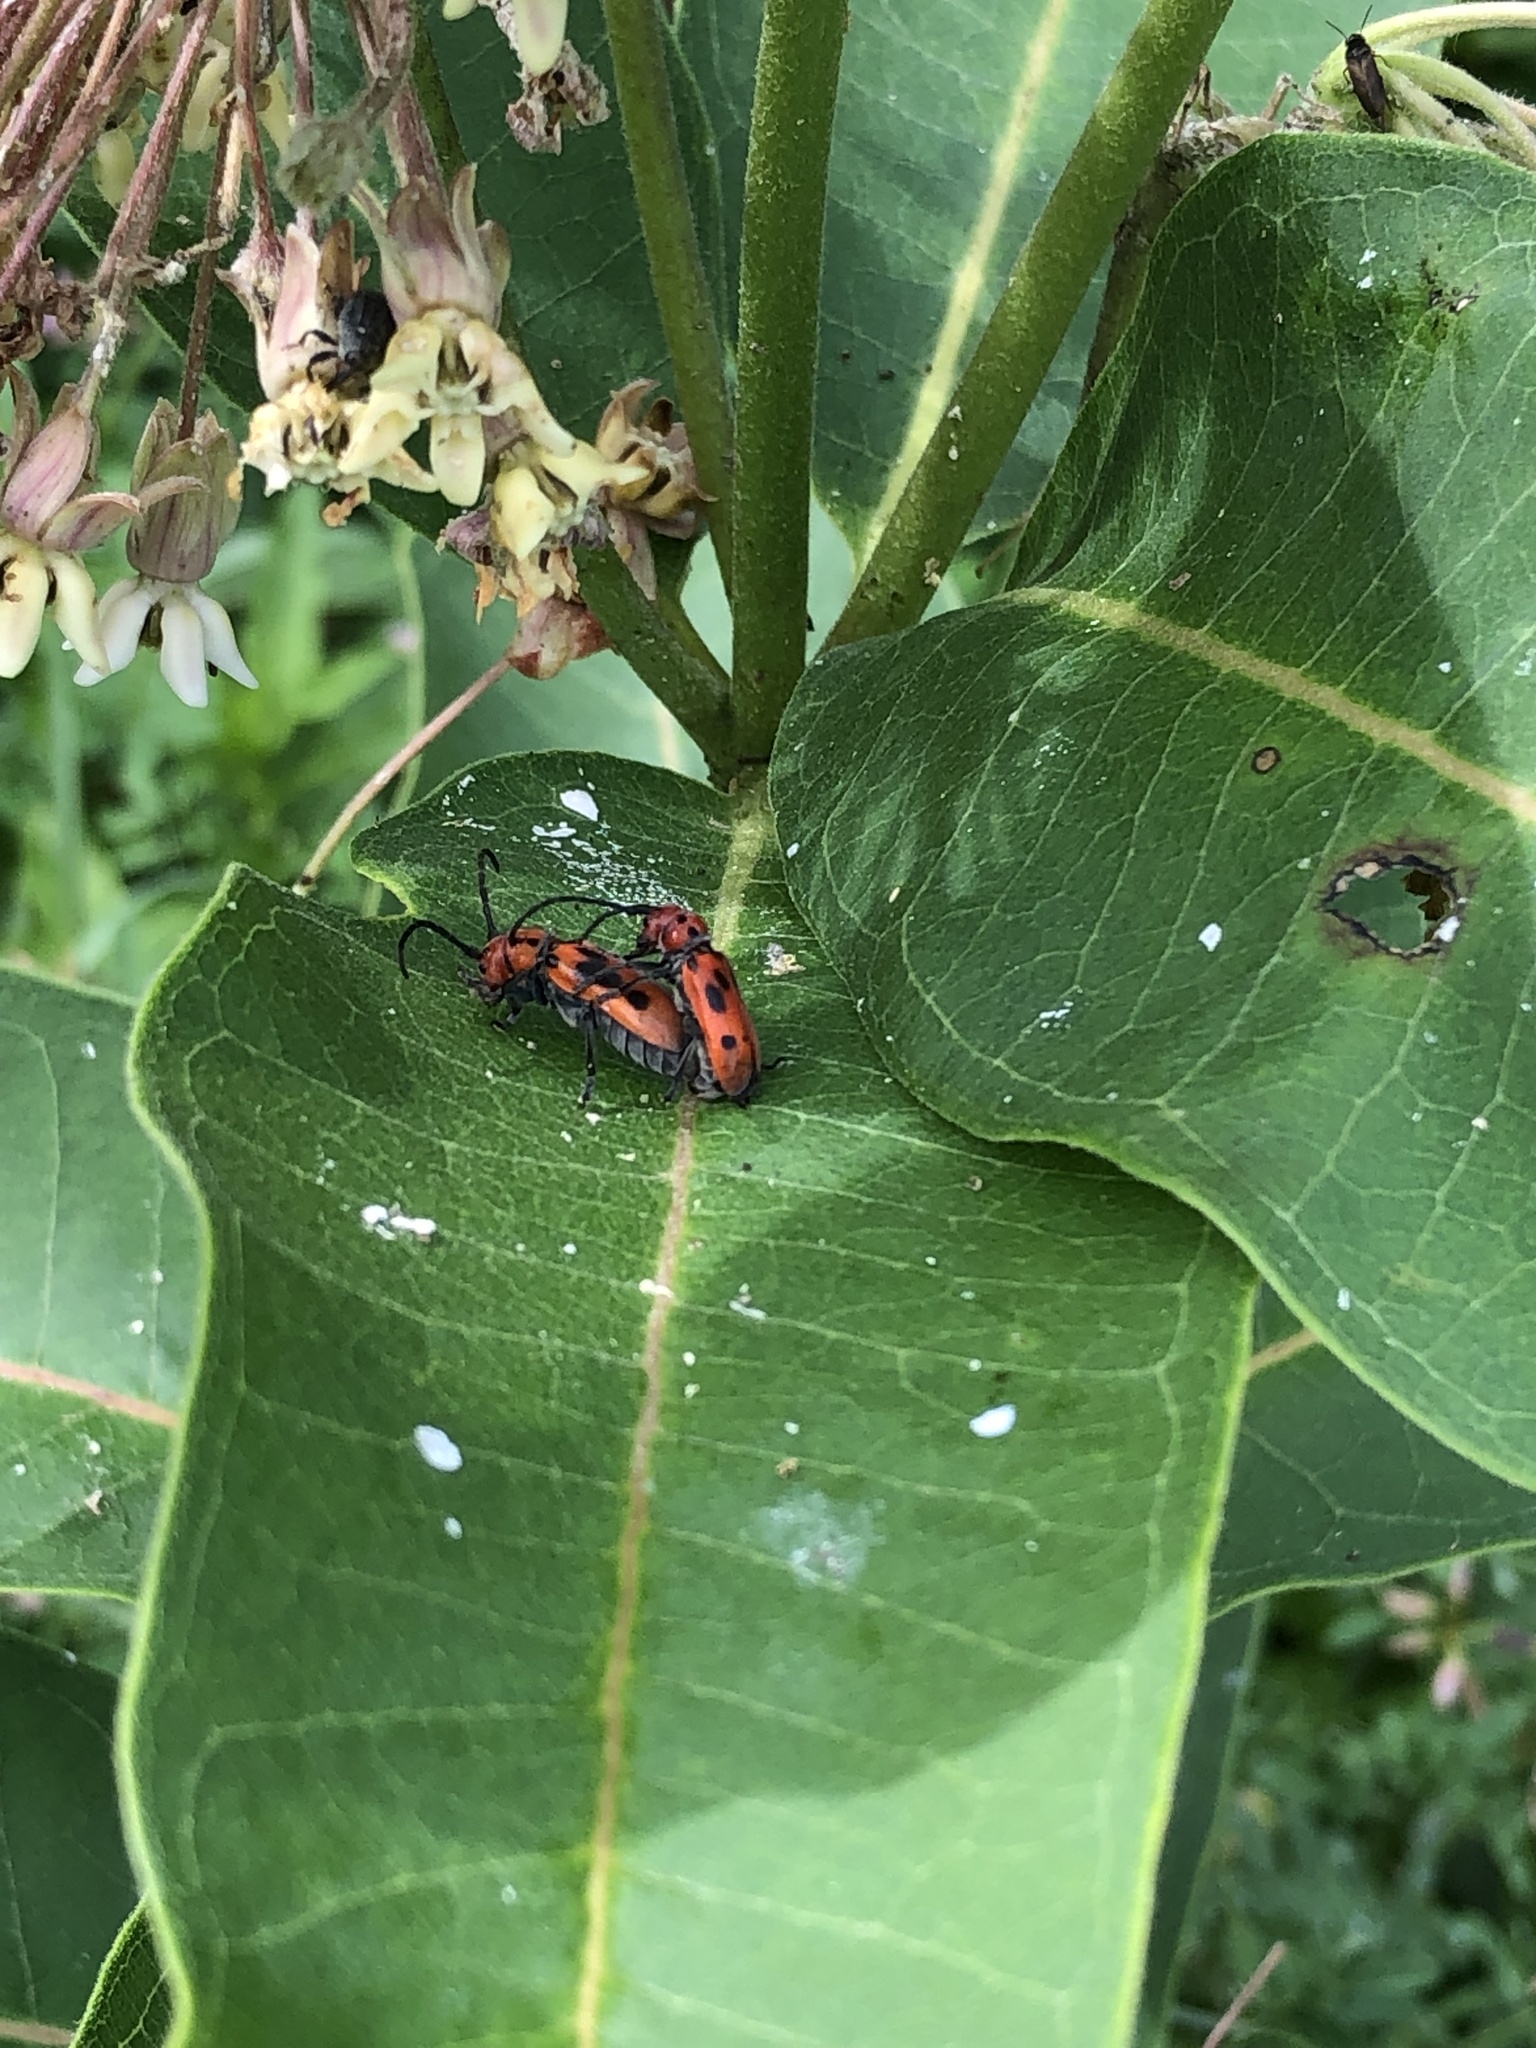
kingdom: Animalia
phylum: Arthropoda
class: Insecta
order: Coleoptera
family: Cerambycidae
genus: Tetraopes
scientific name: Tetraopes tetrophthalmus
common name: Red milkweed beetle
